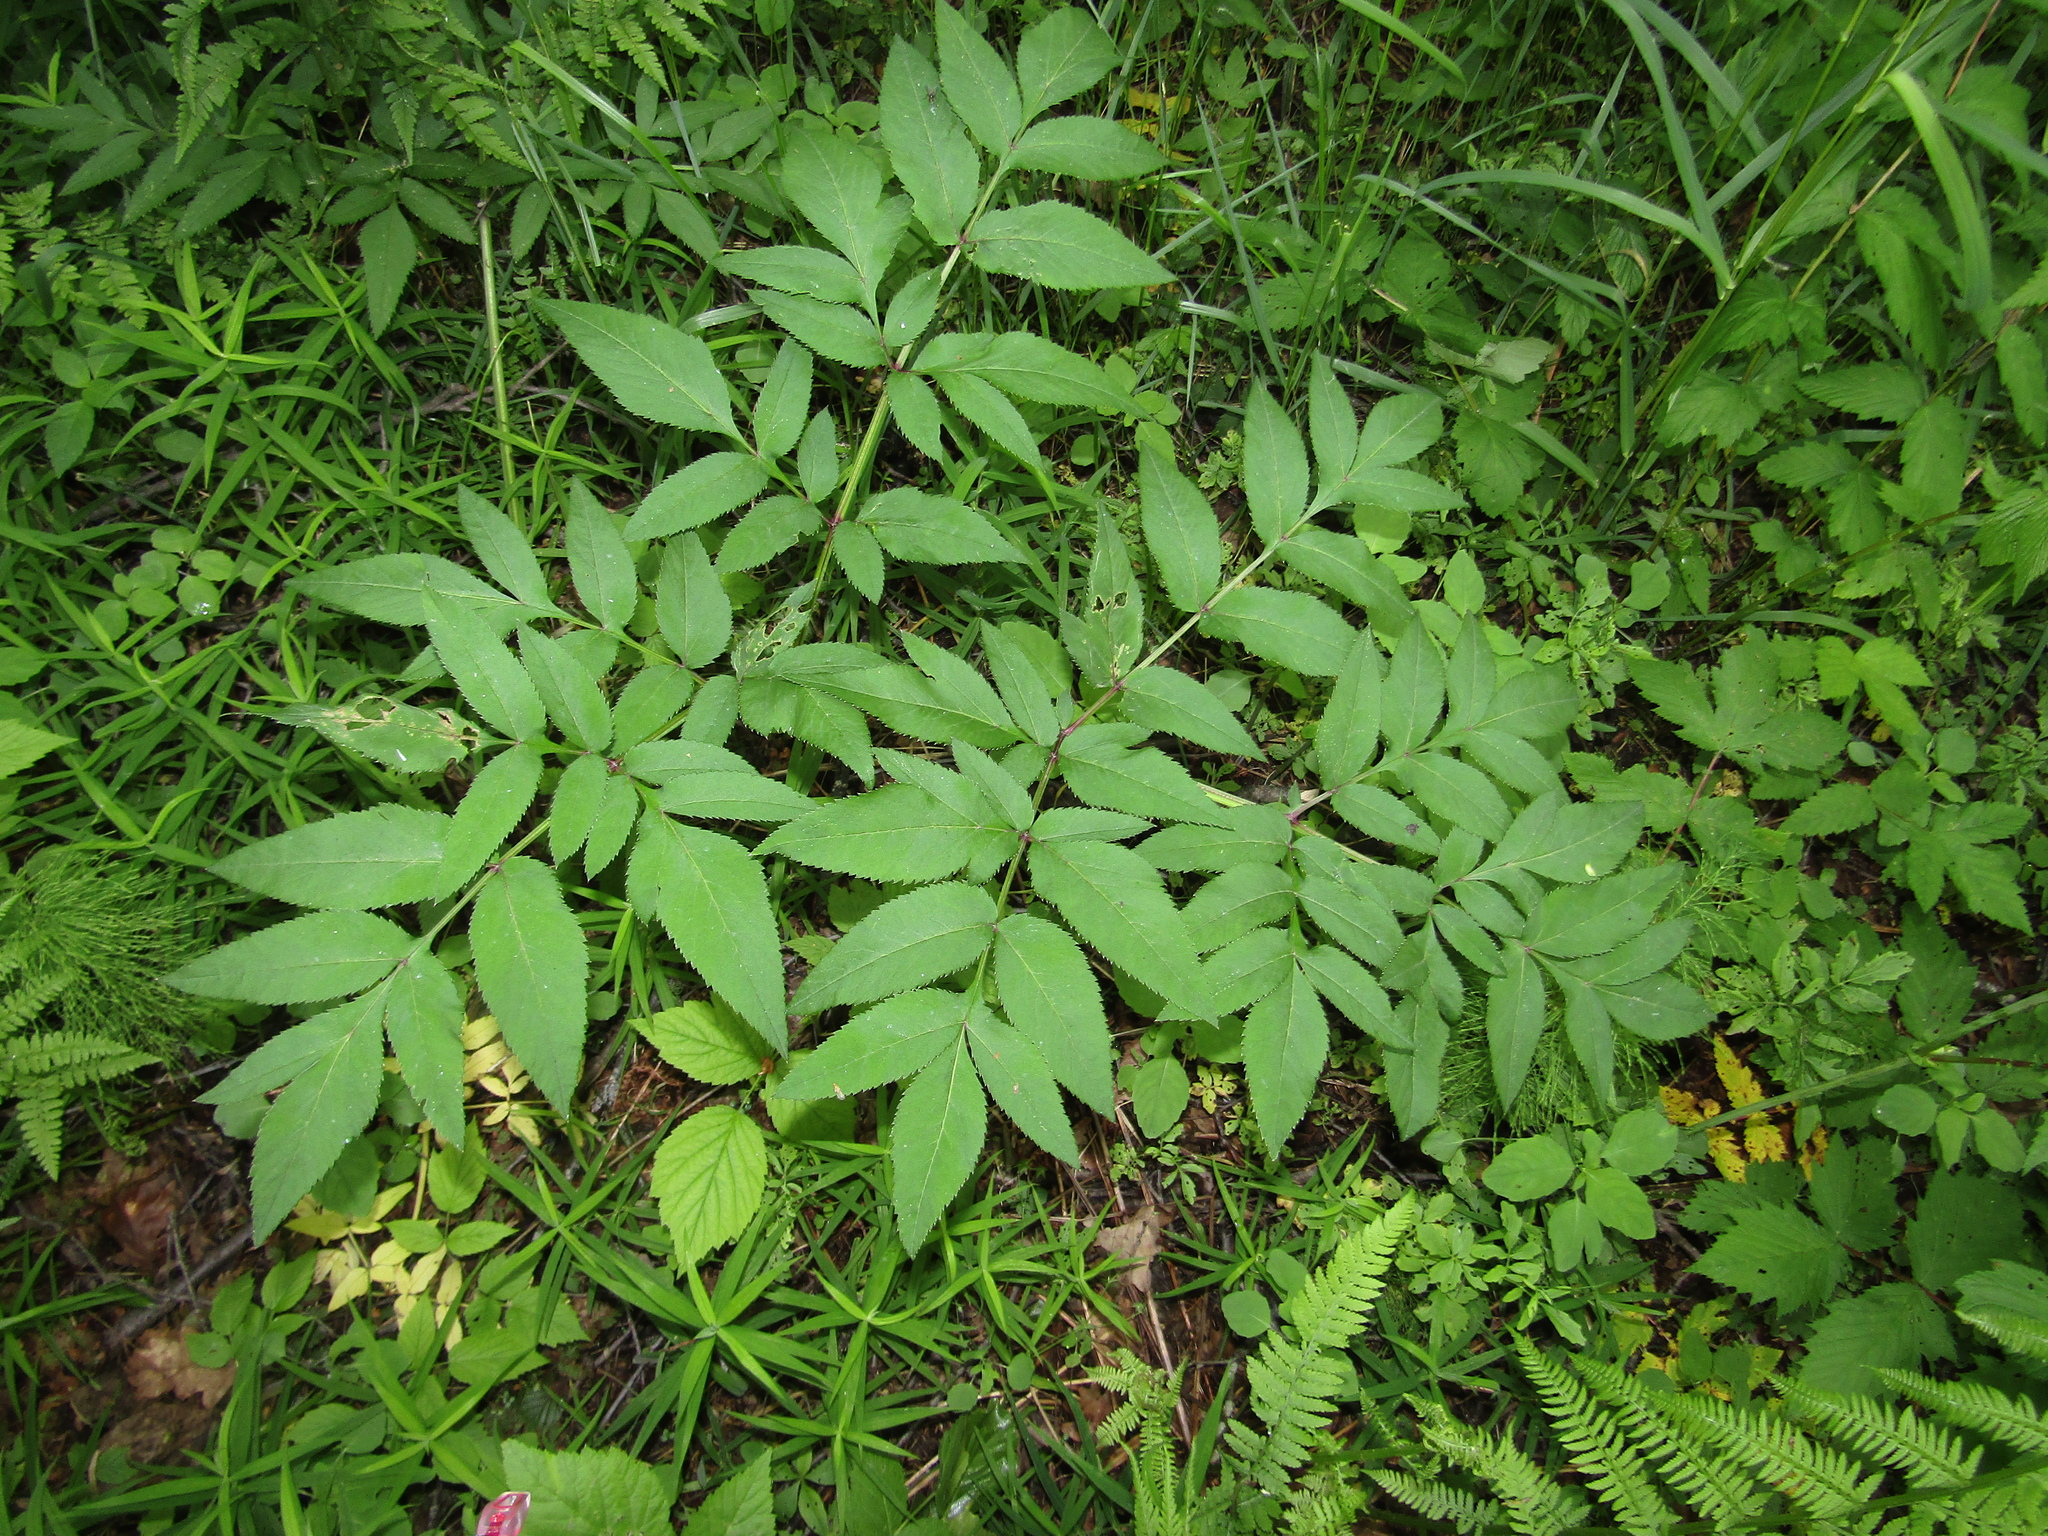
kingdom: Plantae
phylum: Tracheophyta
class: Magnoliopsida
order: Apiales
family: Apiaceae
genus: Angelica
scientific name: Angelica sylvestris
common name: Wild angelica
